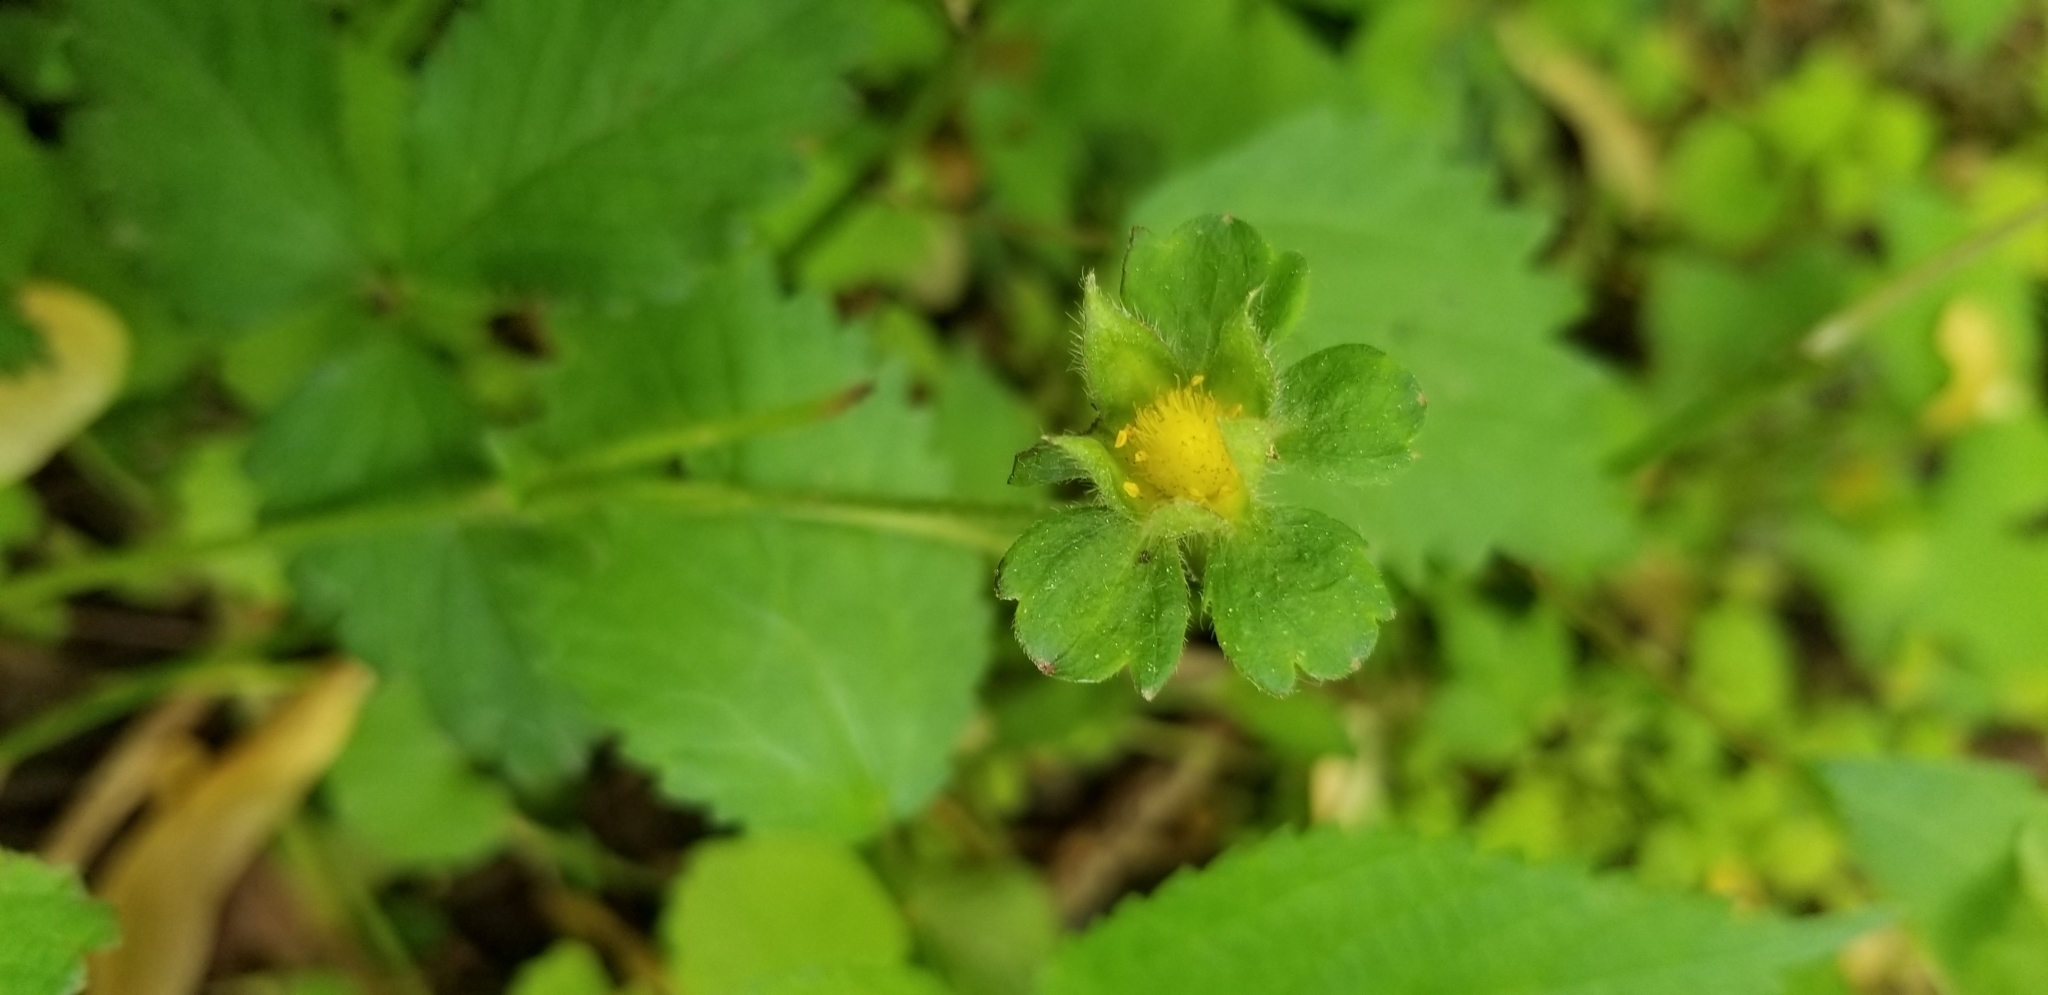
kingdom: Plantae
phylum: Tracheophyta
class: Magnoliopsida
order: Rosales
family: Rosaceae
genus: Potentilla
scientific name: Potentilla indica
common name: Yellow-flowered strawberry
